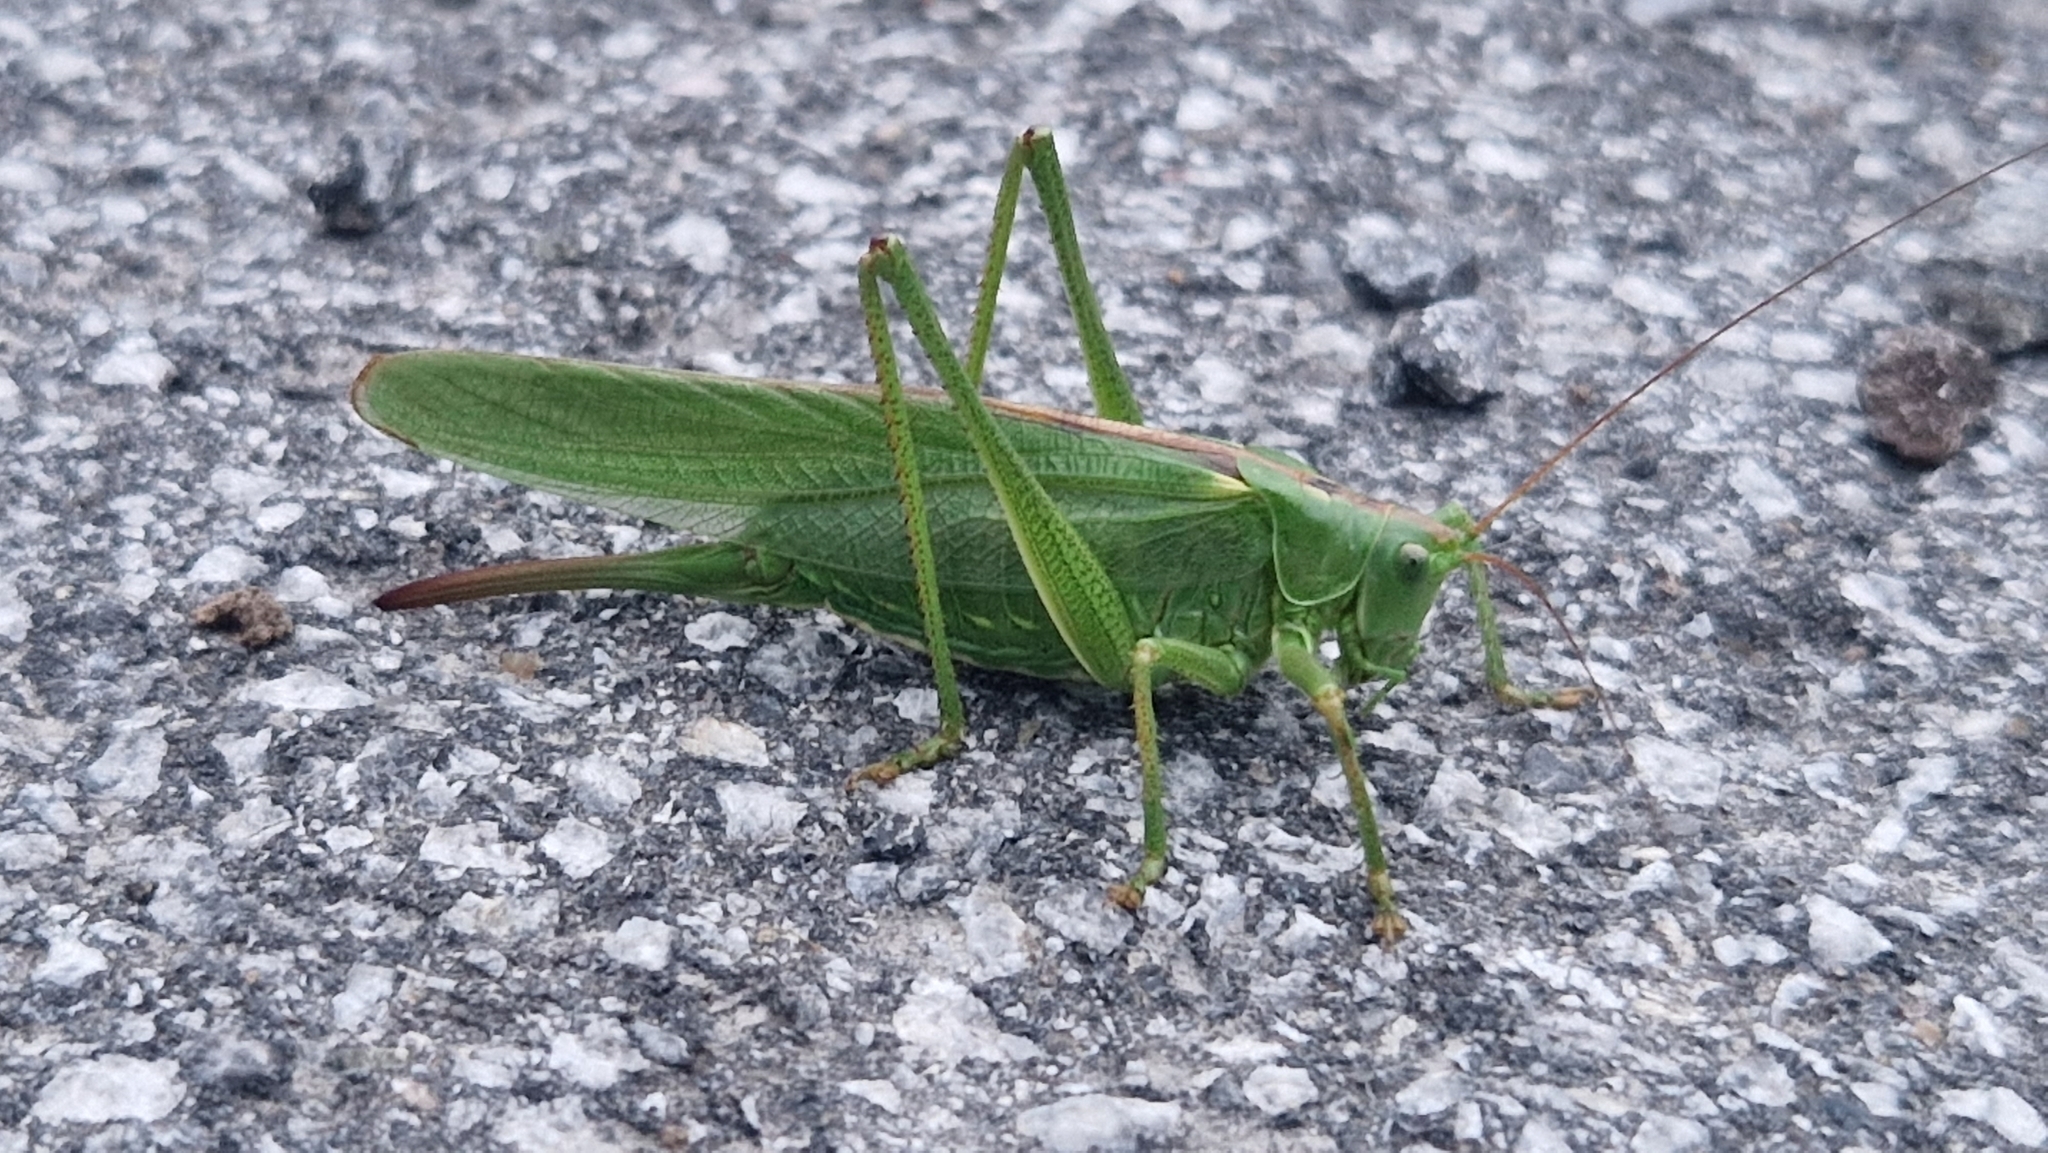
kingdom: Animalia
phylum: Arthropoda
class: Insecta
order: Orthoptera
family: Tettigoniidae
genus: Tettigonia
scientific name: Tettigonia viridissima
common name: Great green bush-cricket
